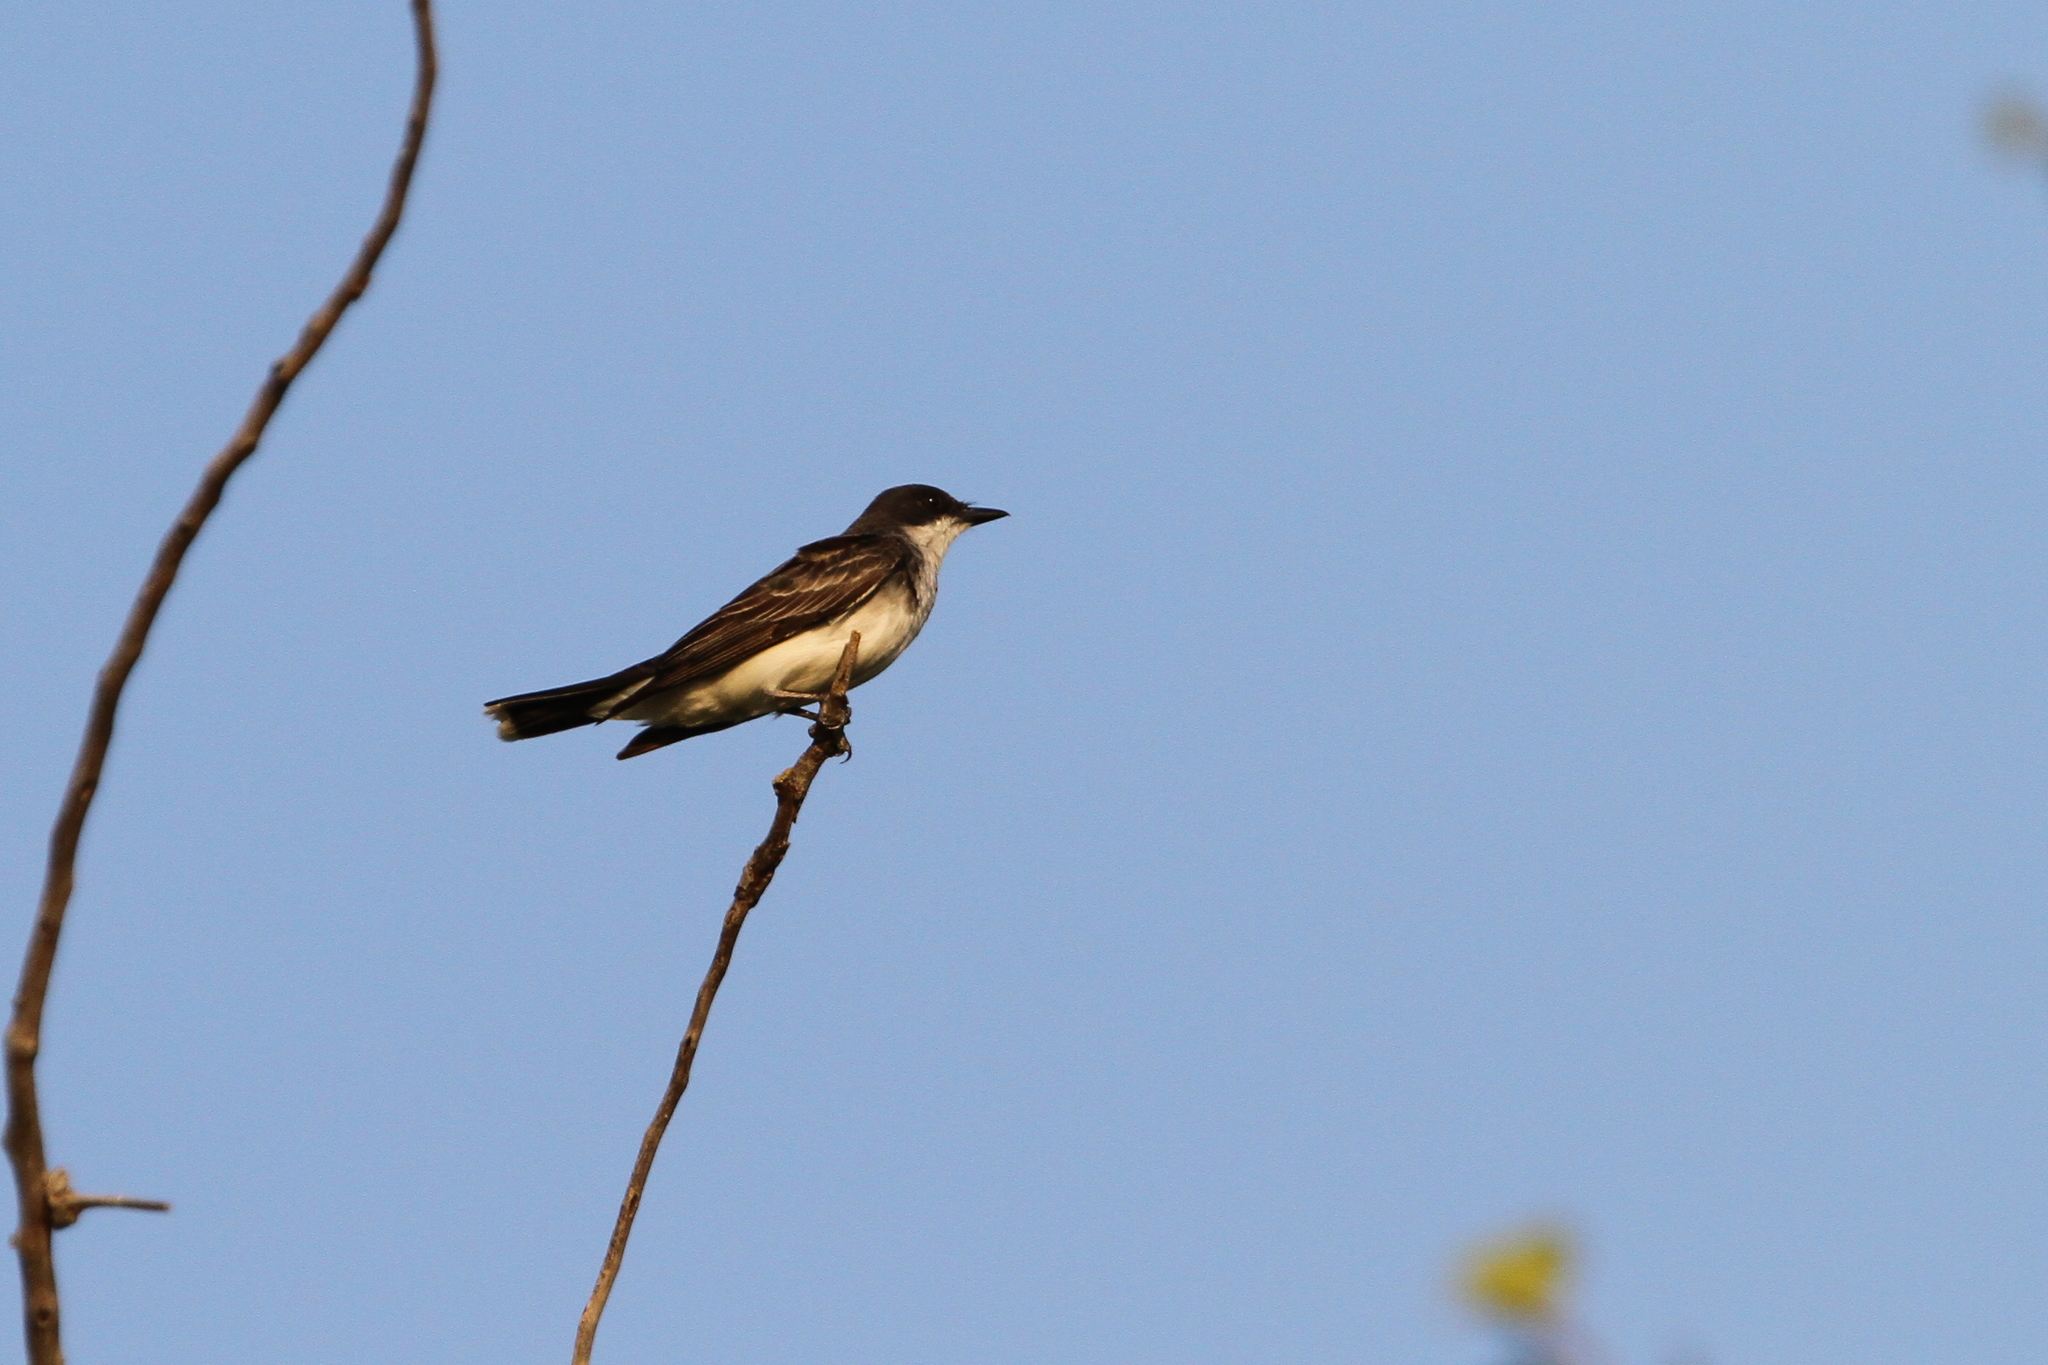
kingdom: Animalia
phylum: Chordata
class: Aves
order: Passeriformes
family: Tyrannidae
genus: Tyrannus
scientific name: Tyrannus tyrannus
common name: Eastern kingbird
